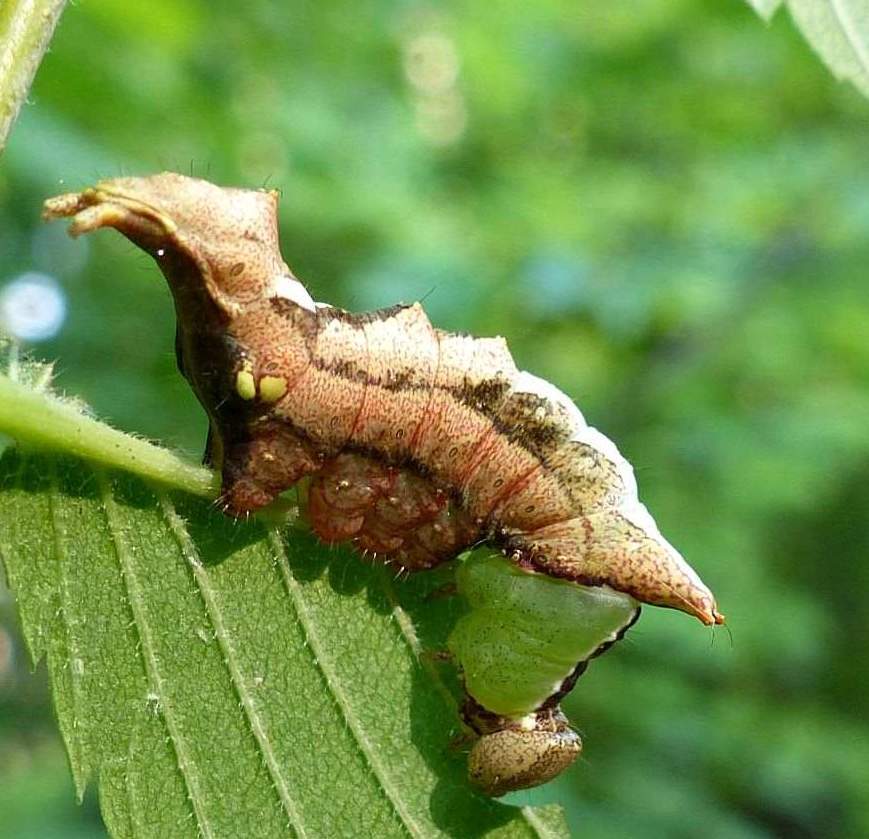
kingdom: Animalia
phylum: Arthropoda
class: Insecta
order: Lepidoptera
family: Notodontidae
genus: Schizura
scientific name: Schizura
